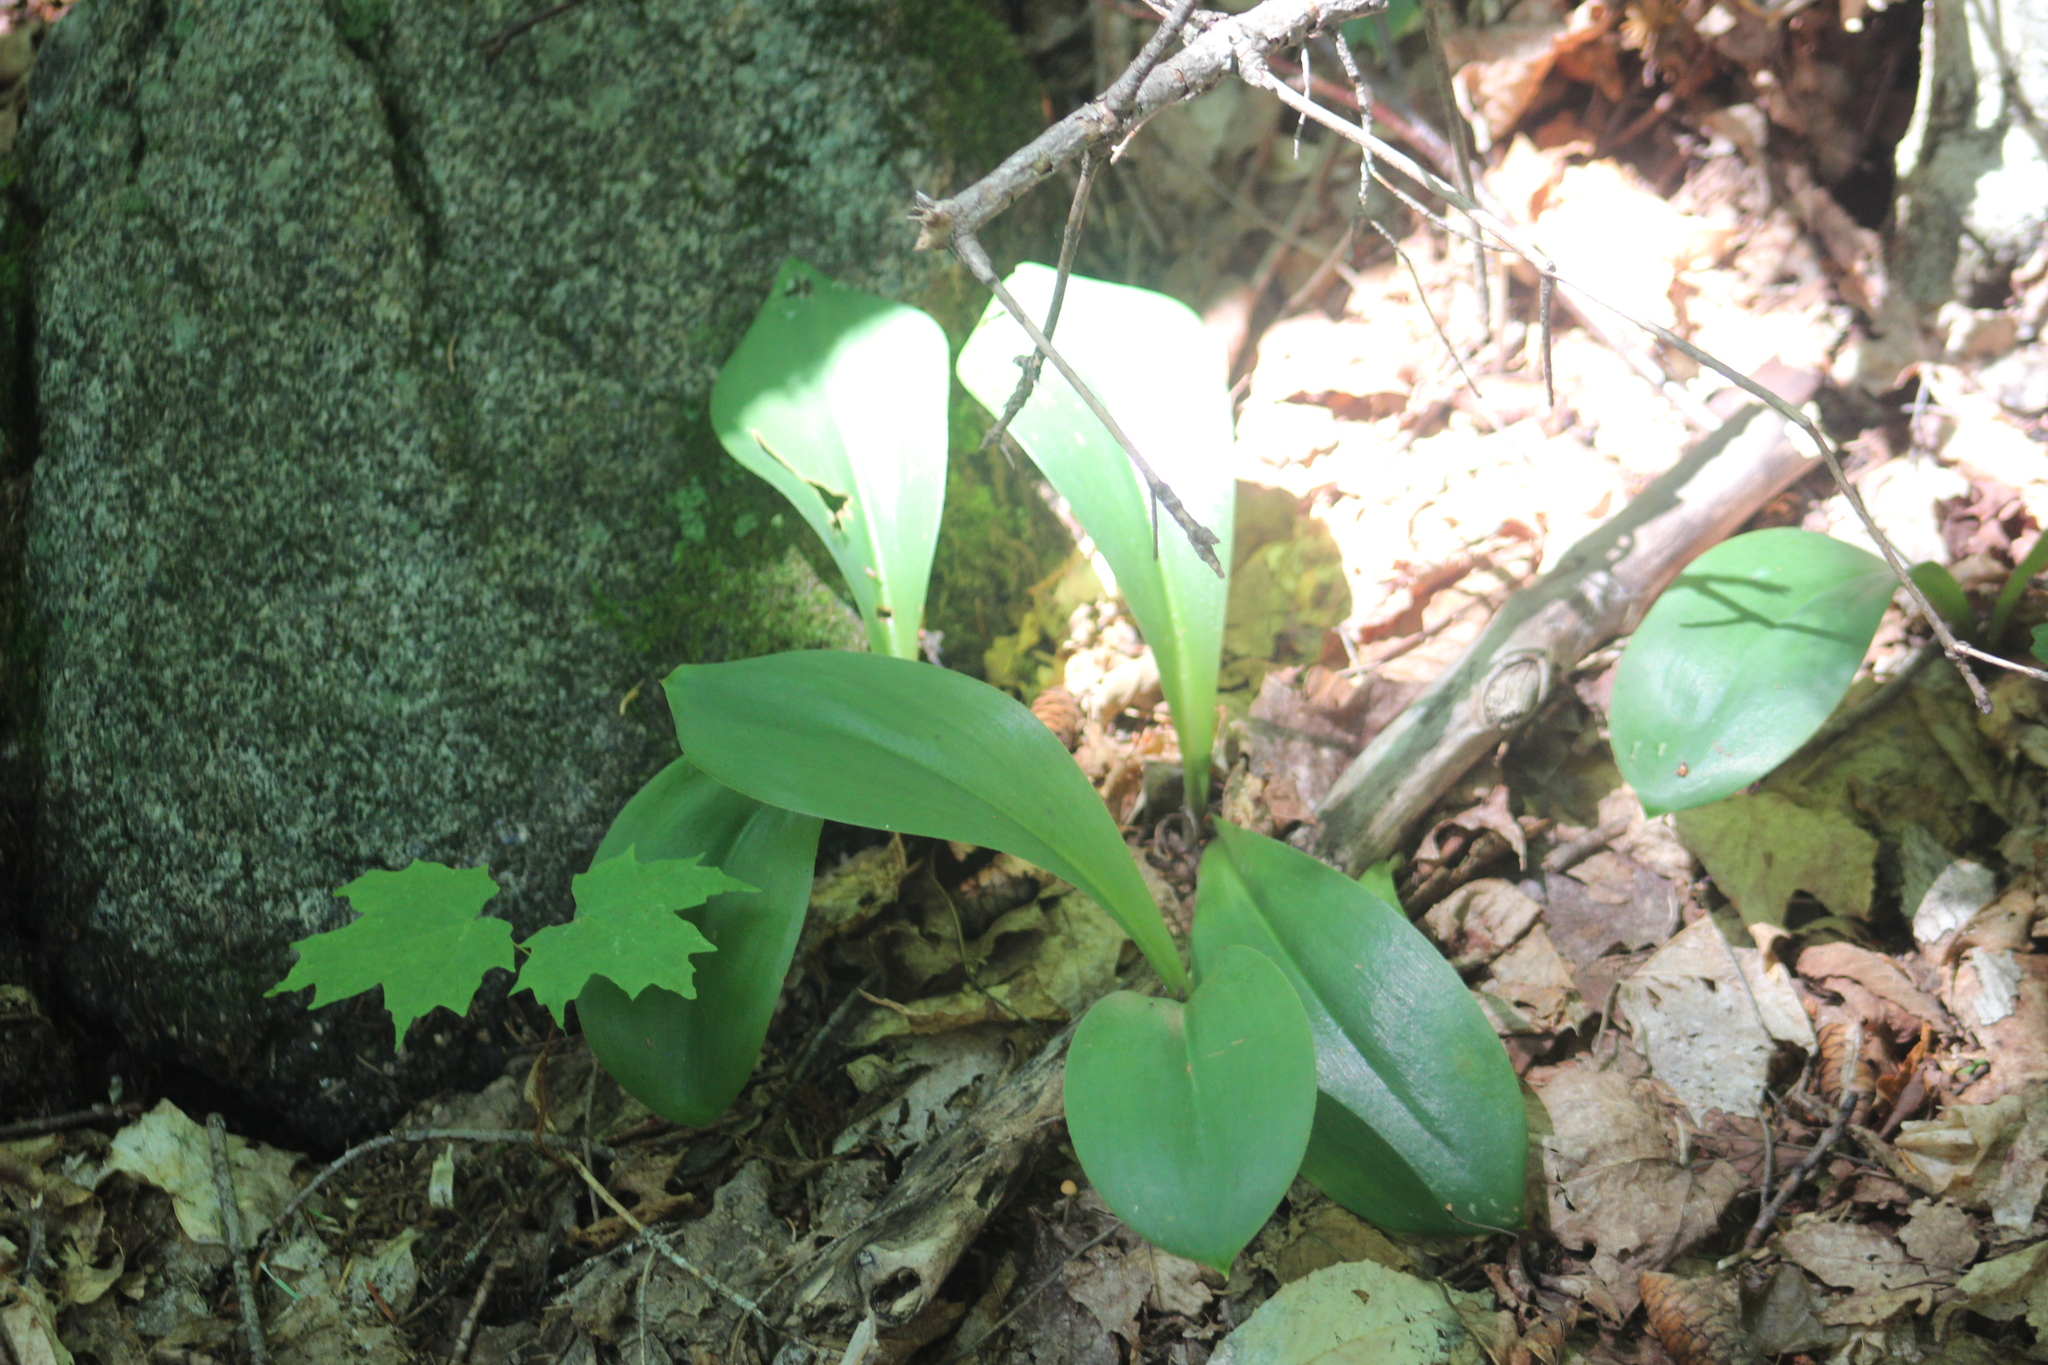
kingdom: Plantae
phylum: Tracheophyta
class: Liliopsida
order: Liliales
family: Liliaceae
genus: Clintonia
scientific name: Clintonia borealis
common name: Yellow clintonia
